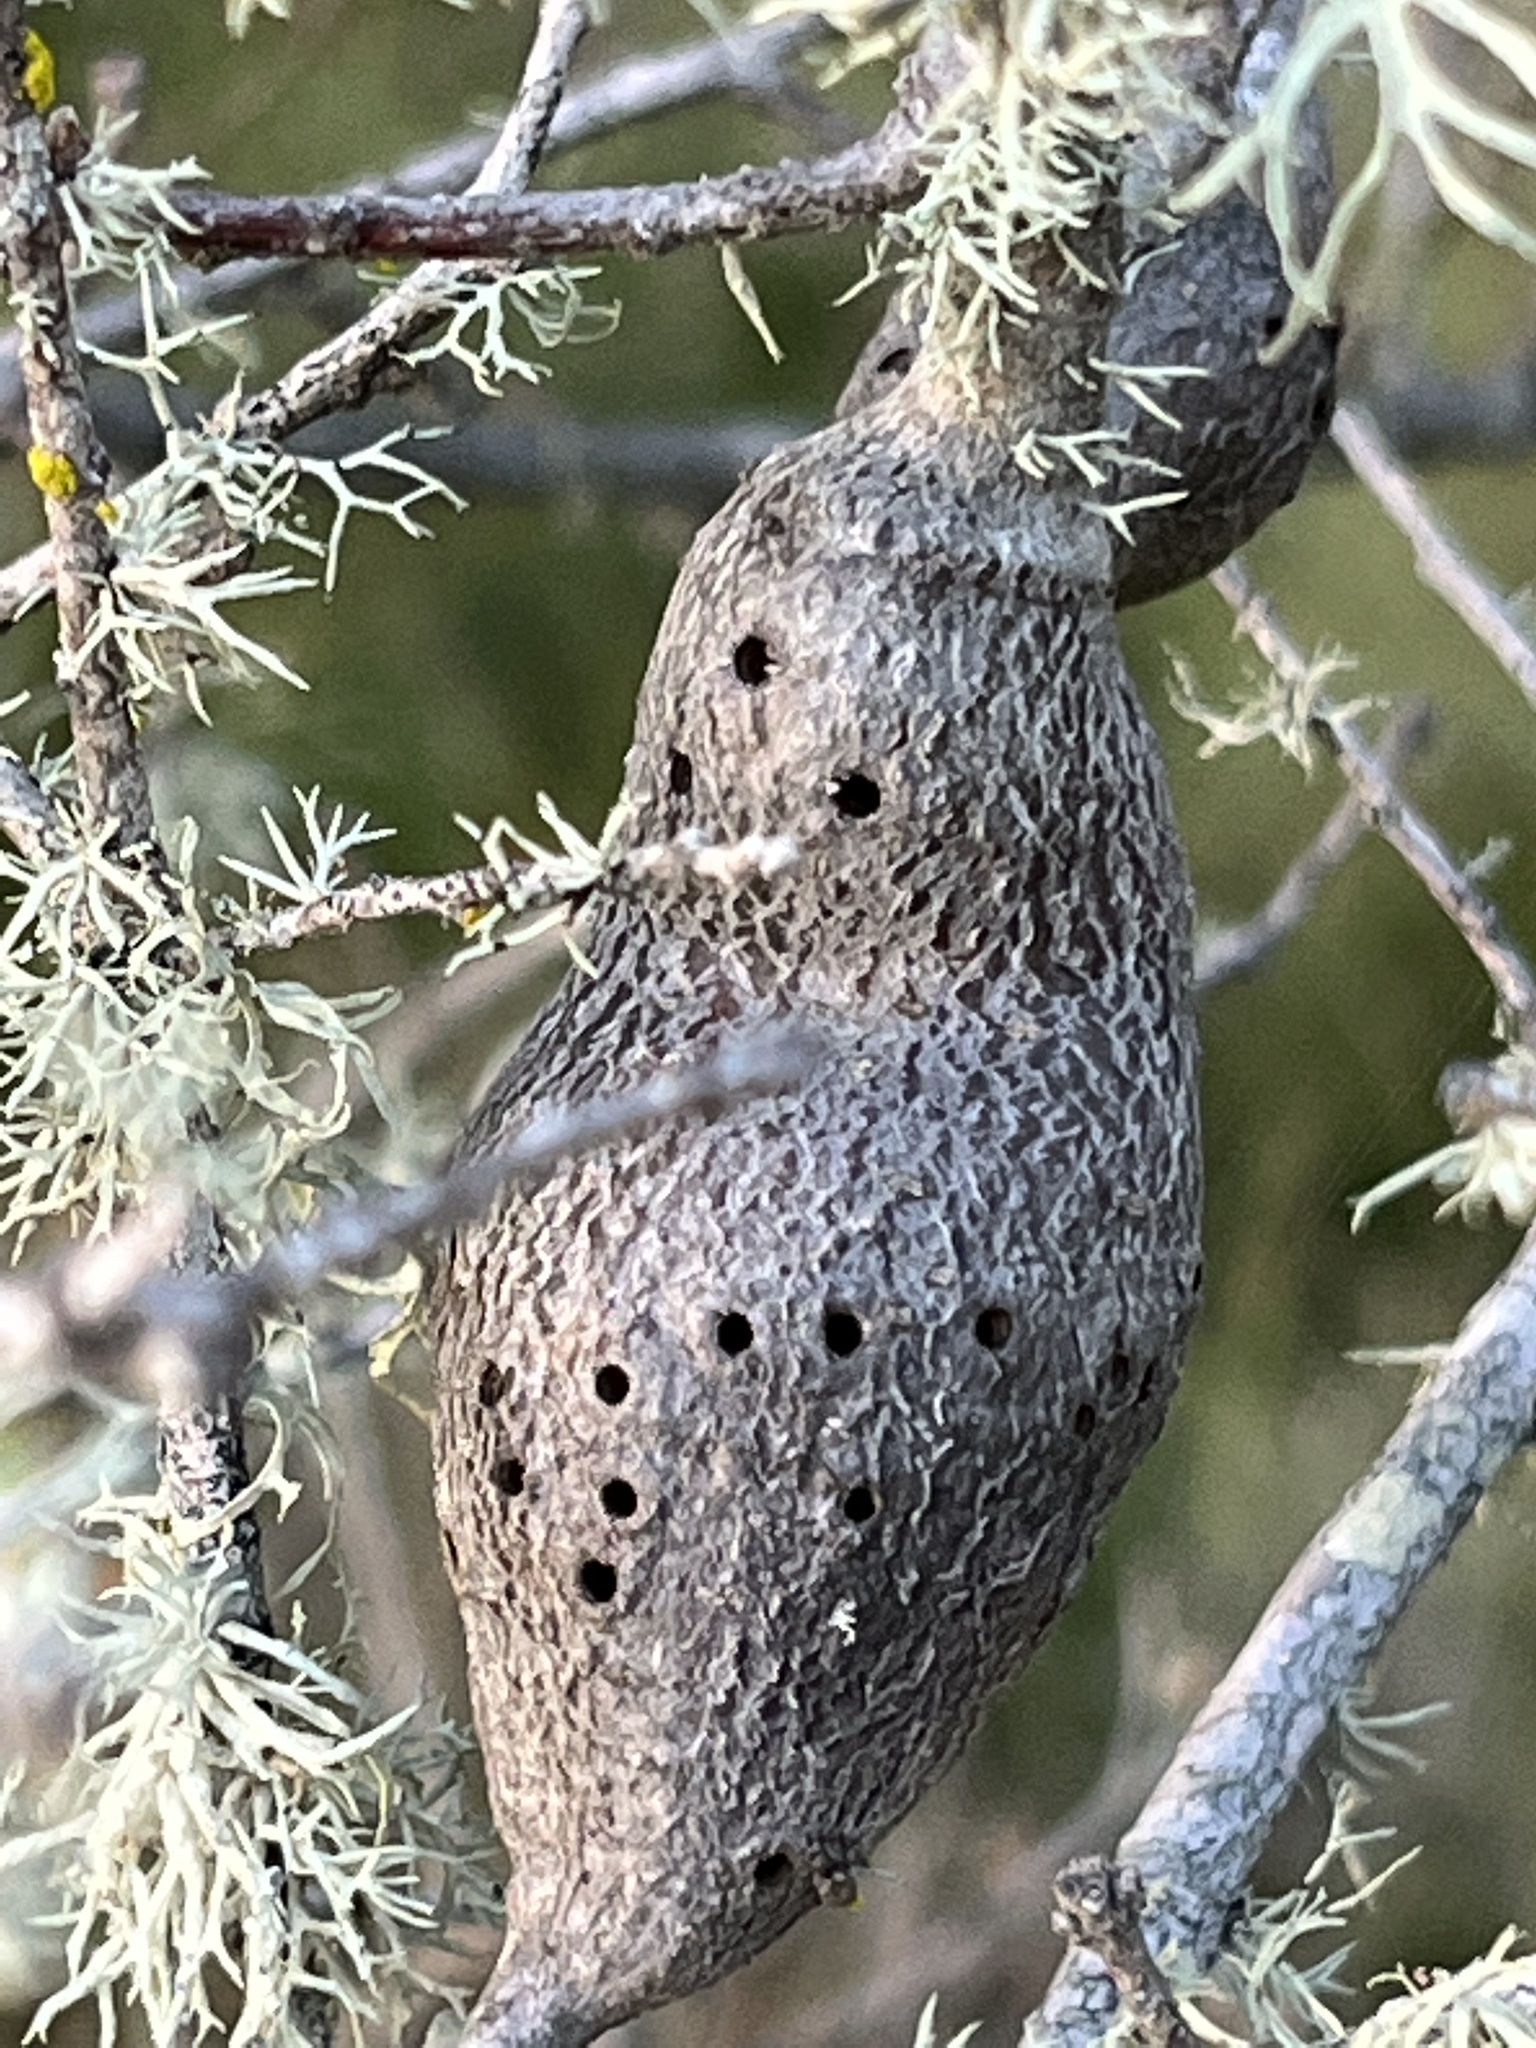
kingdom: Animalia
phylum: Arthropoda
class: Insecta
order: Hymenoptera
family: Cynipidae
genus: Callirhytis
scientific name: Callirhytis
